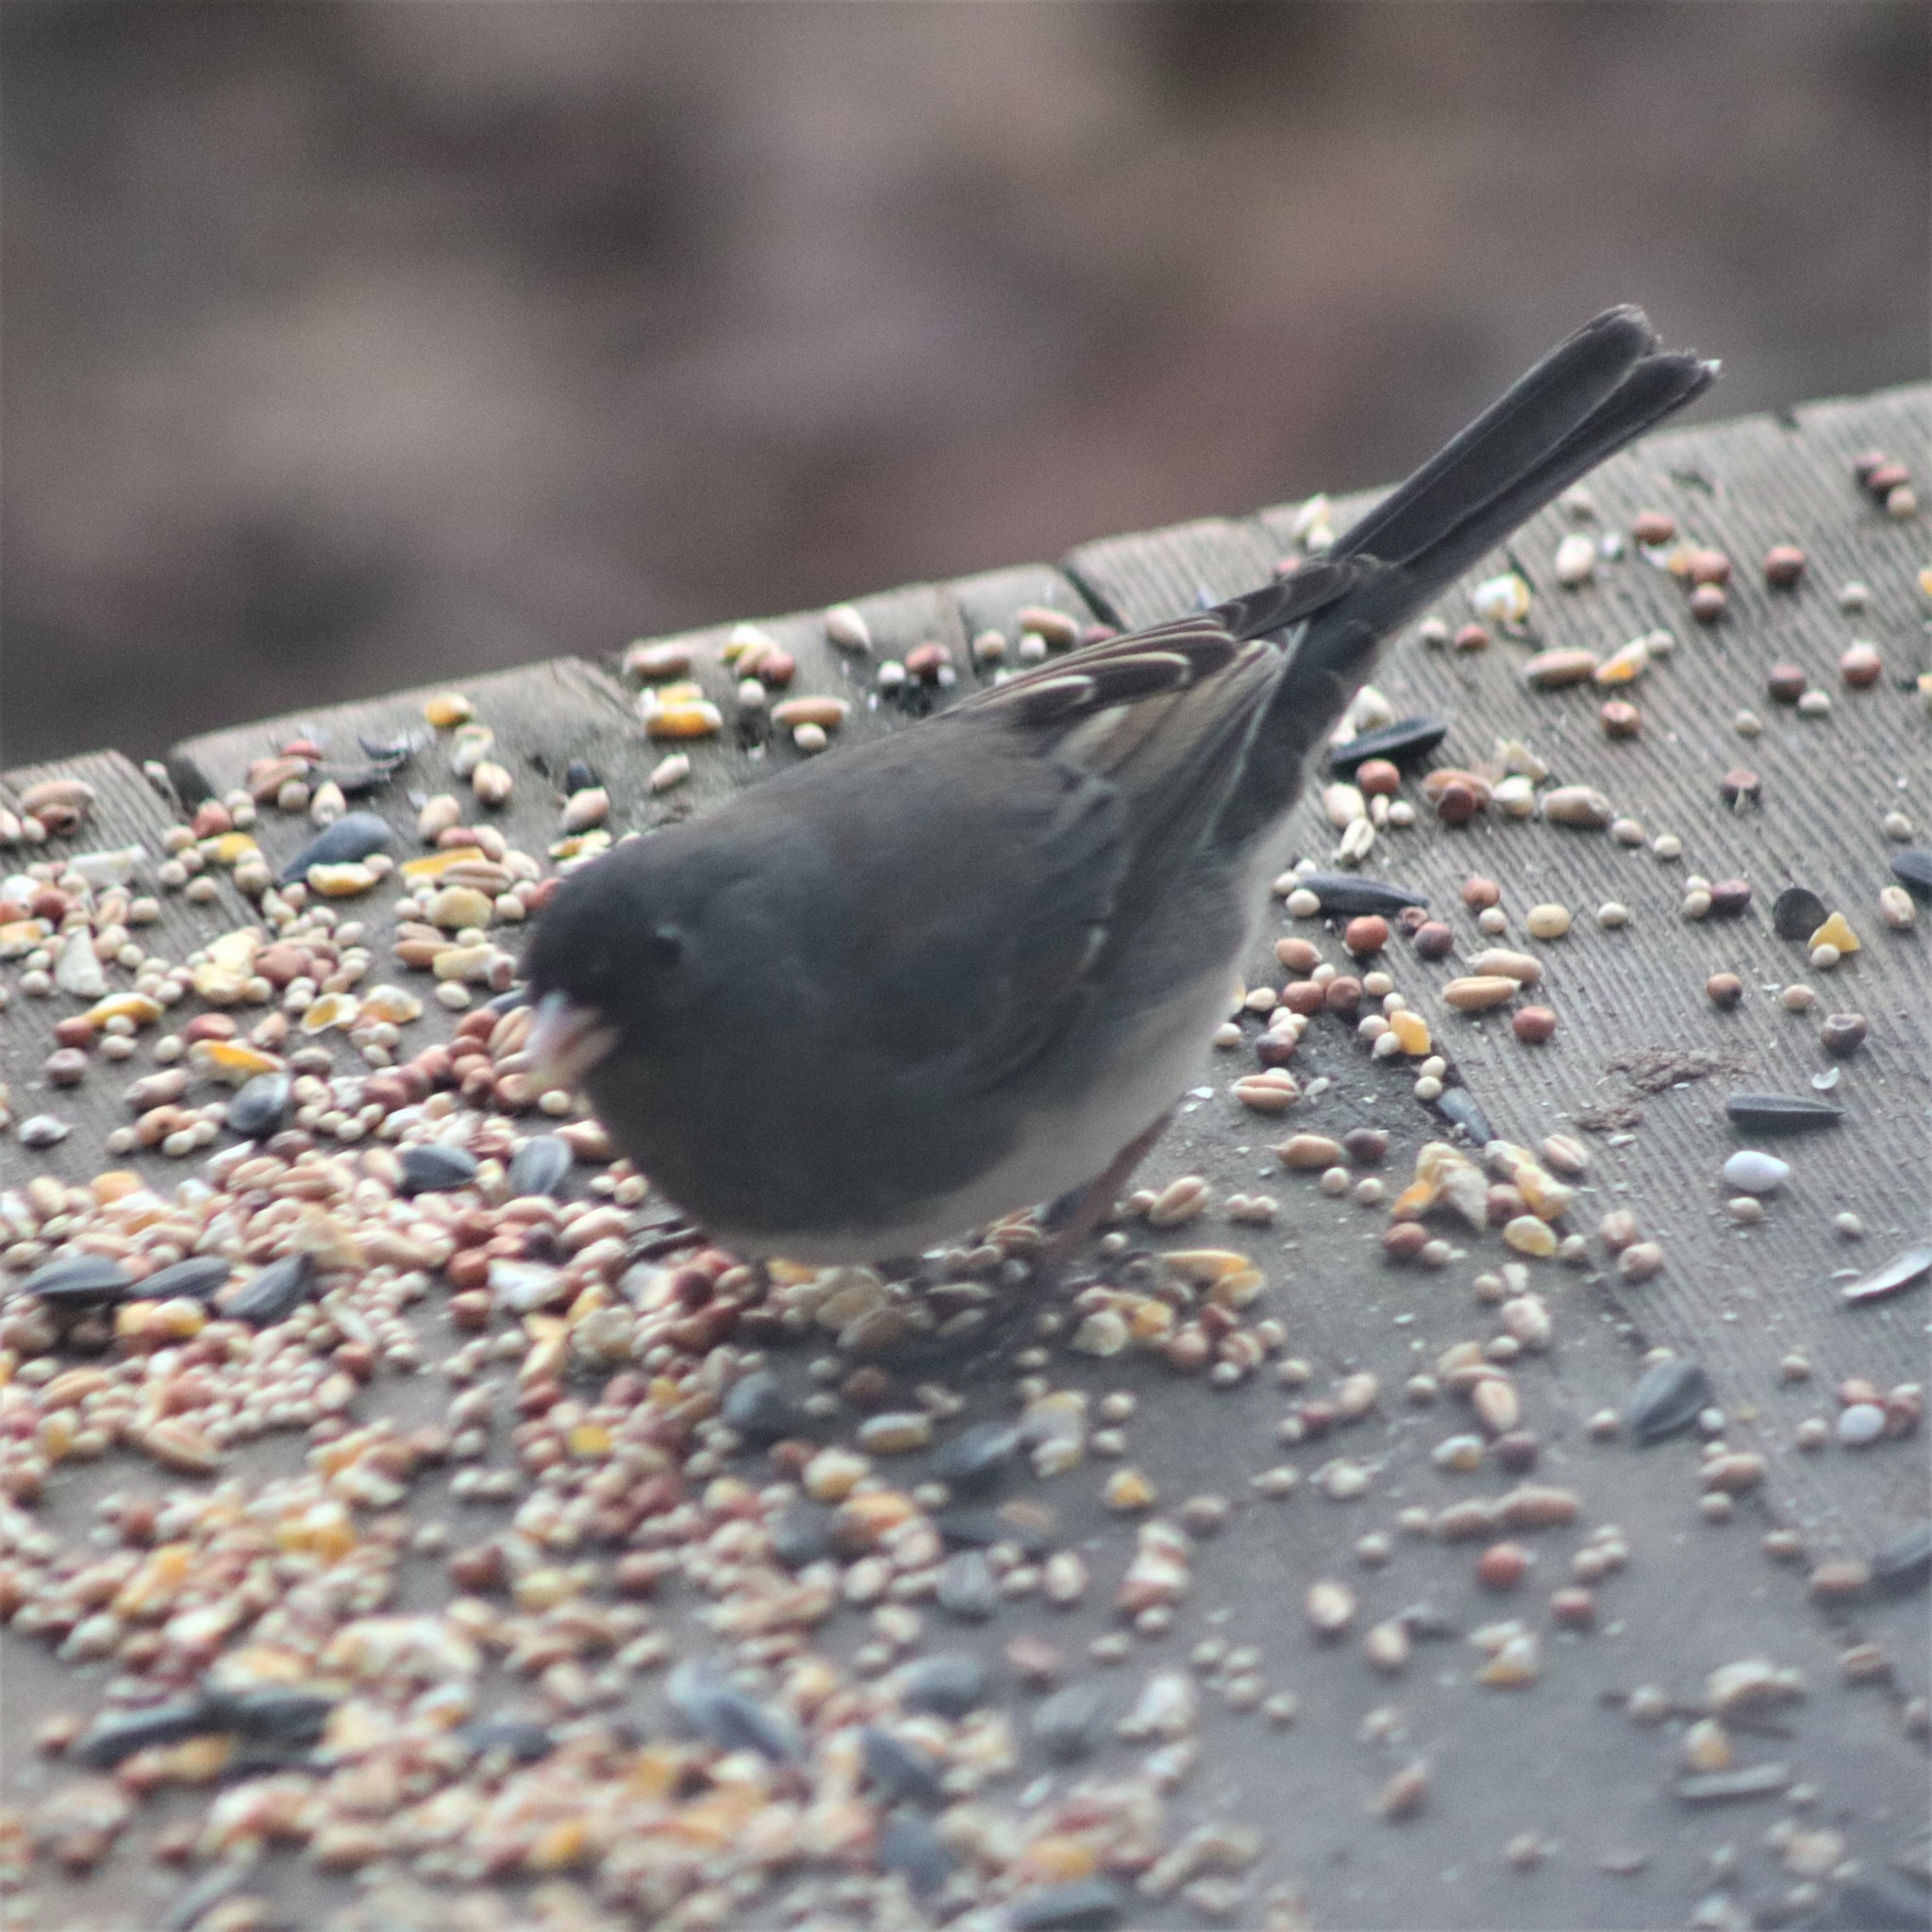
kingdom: Animalia
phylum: Chordata
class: Aves
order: Passeriformes
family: Passerellidae
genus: Junco
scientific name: Junco hyemalis
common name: Dark-eyed junco
